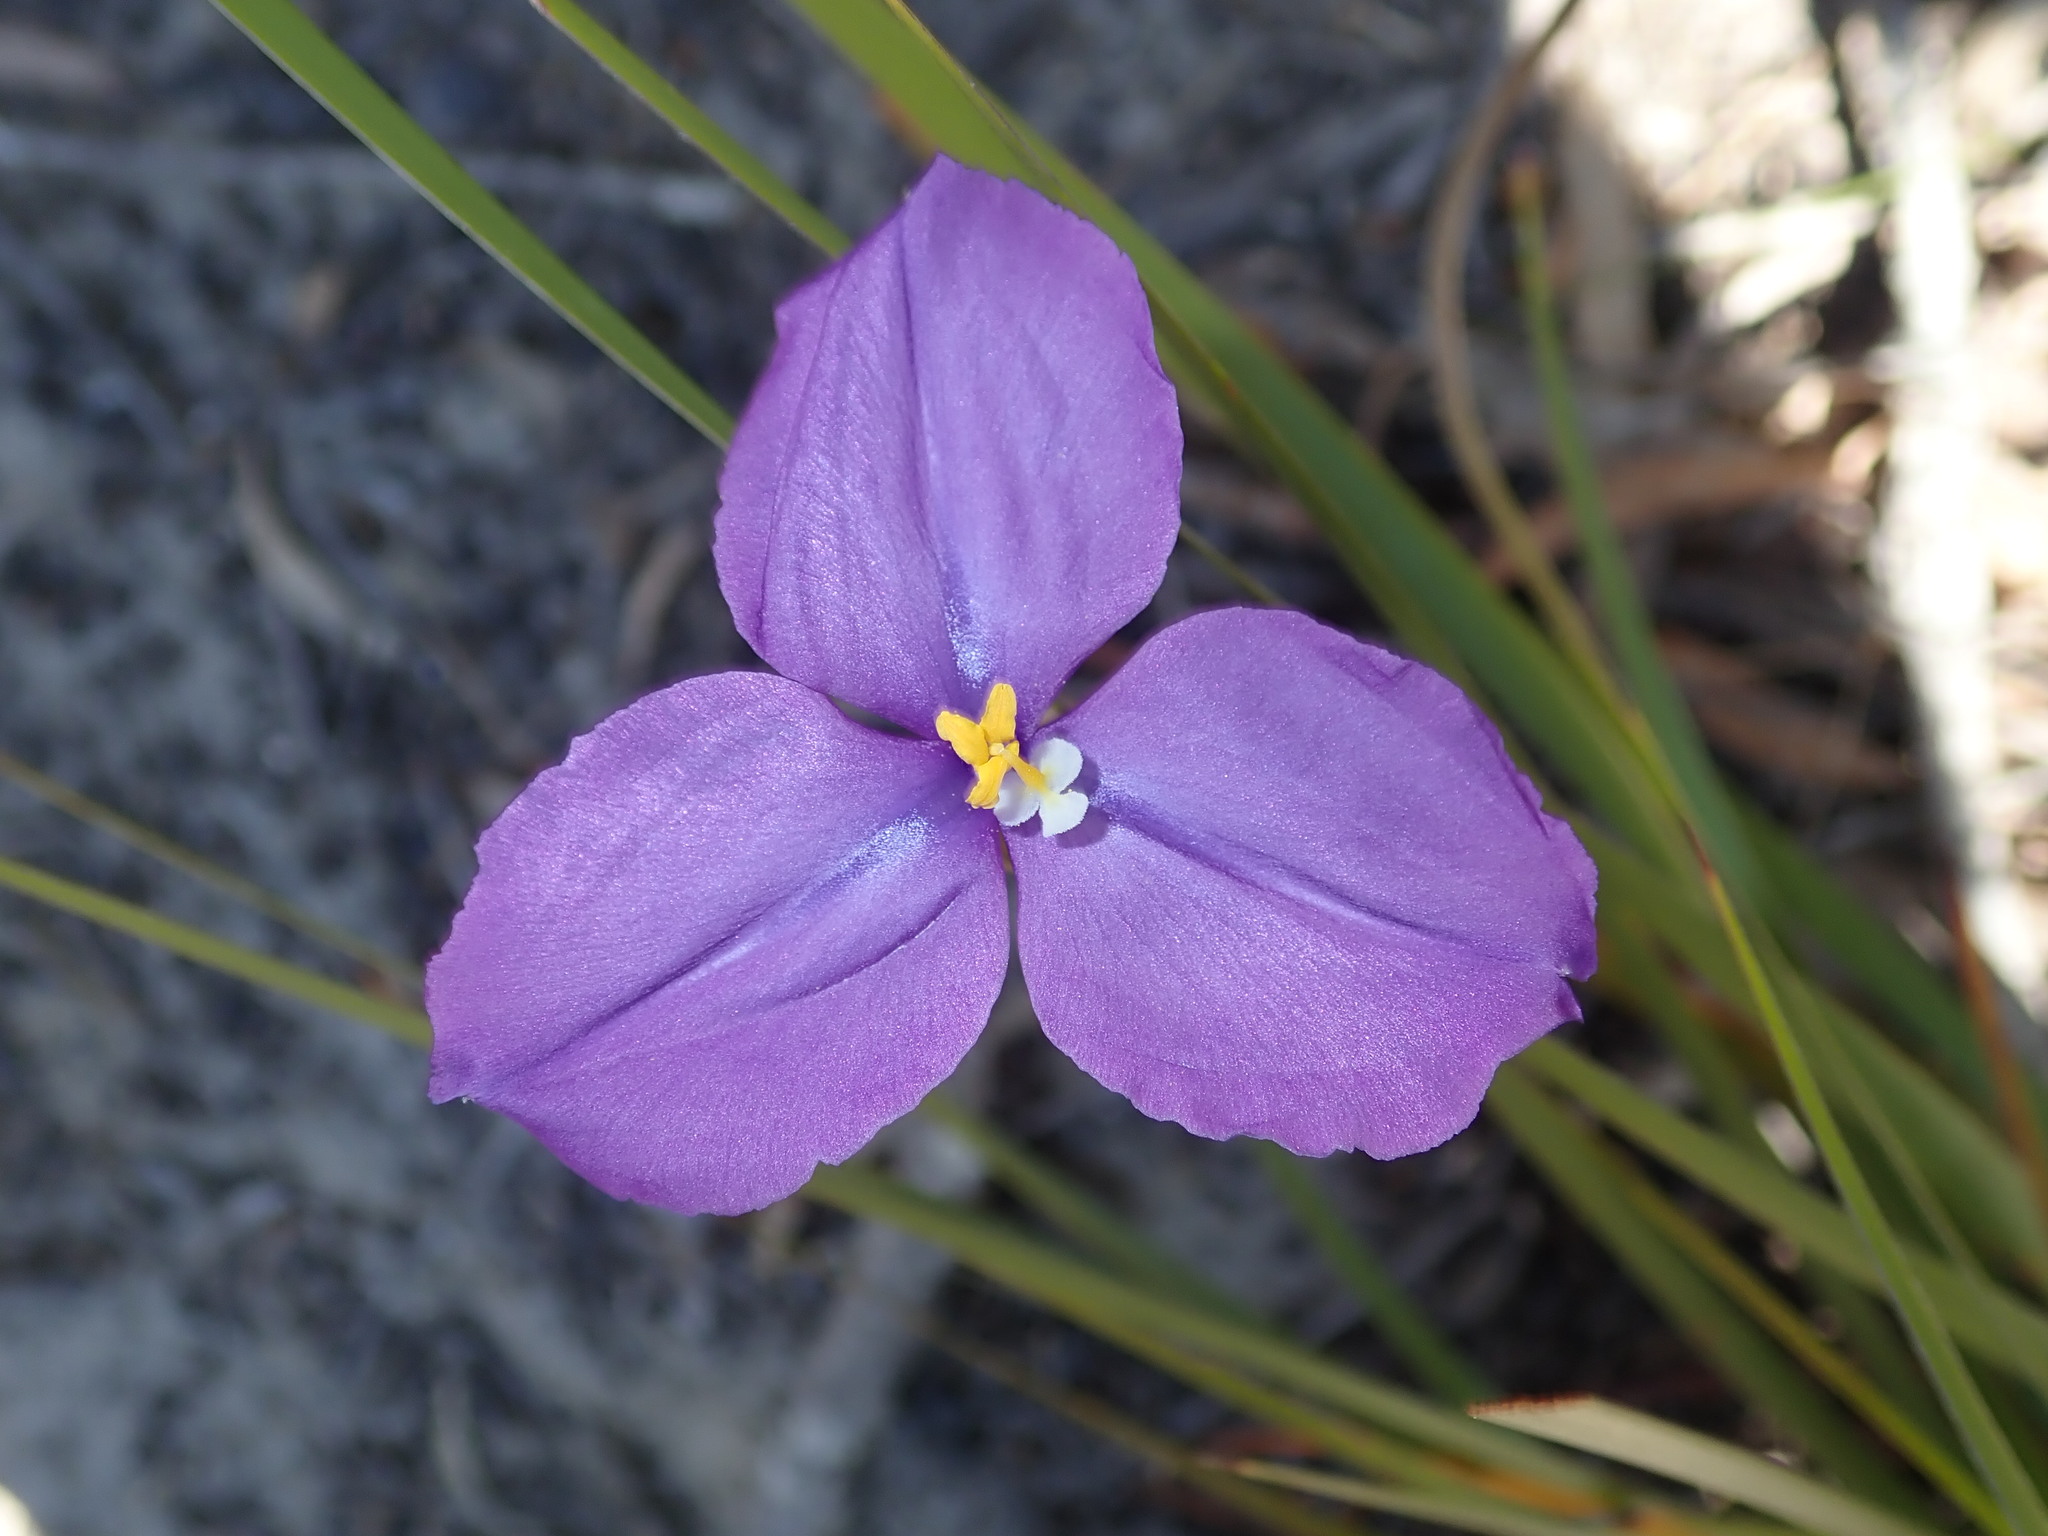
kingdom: Plantae
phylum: Tracheophyta
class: Liliopsida
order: Asparagales
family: Iridaceae
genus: Patersonia
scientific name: Patersonia sericea
